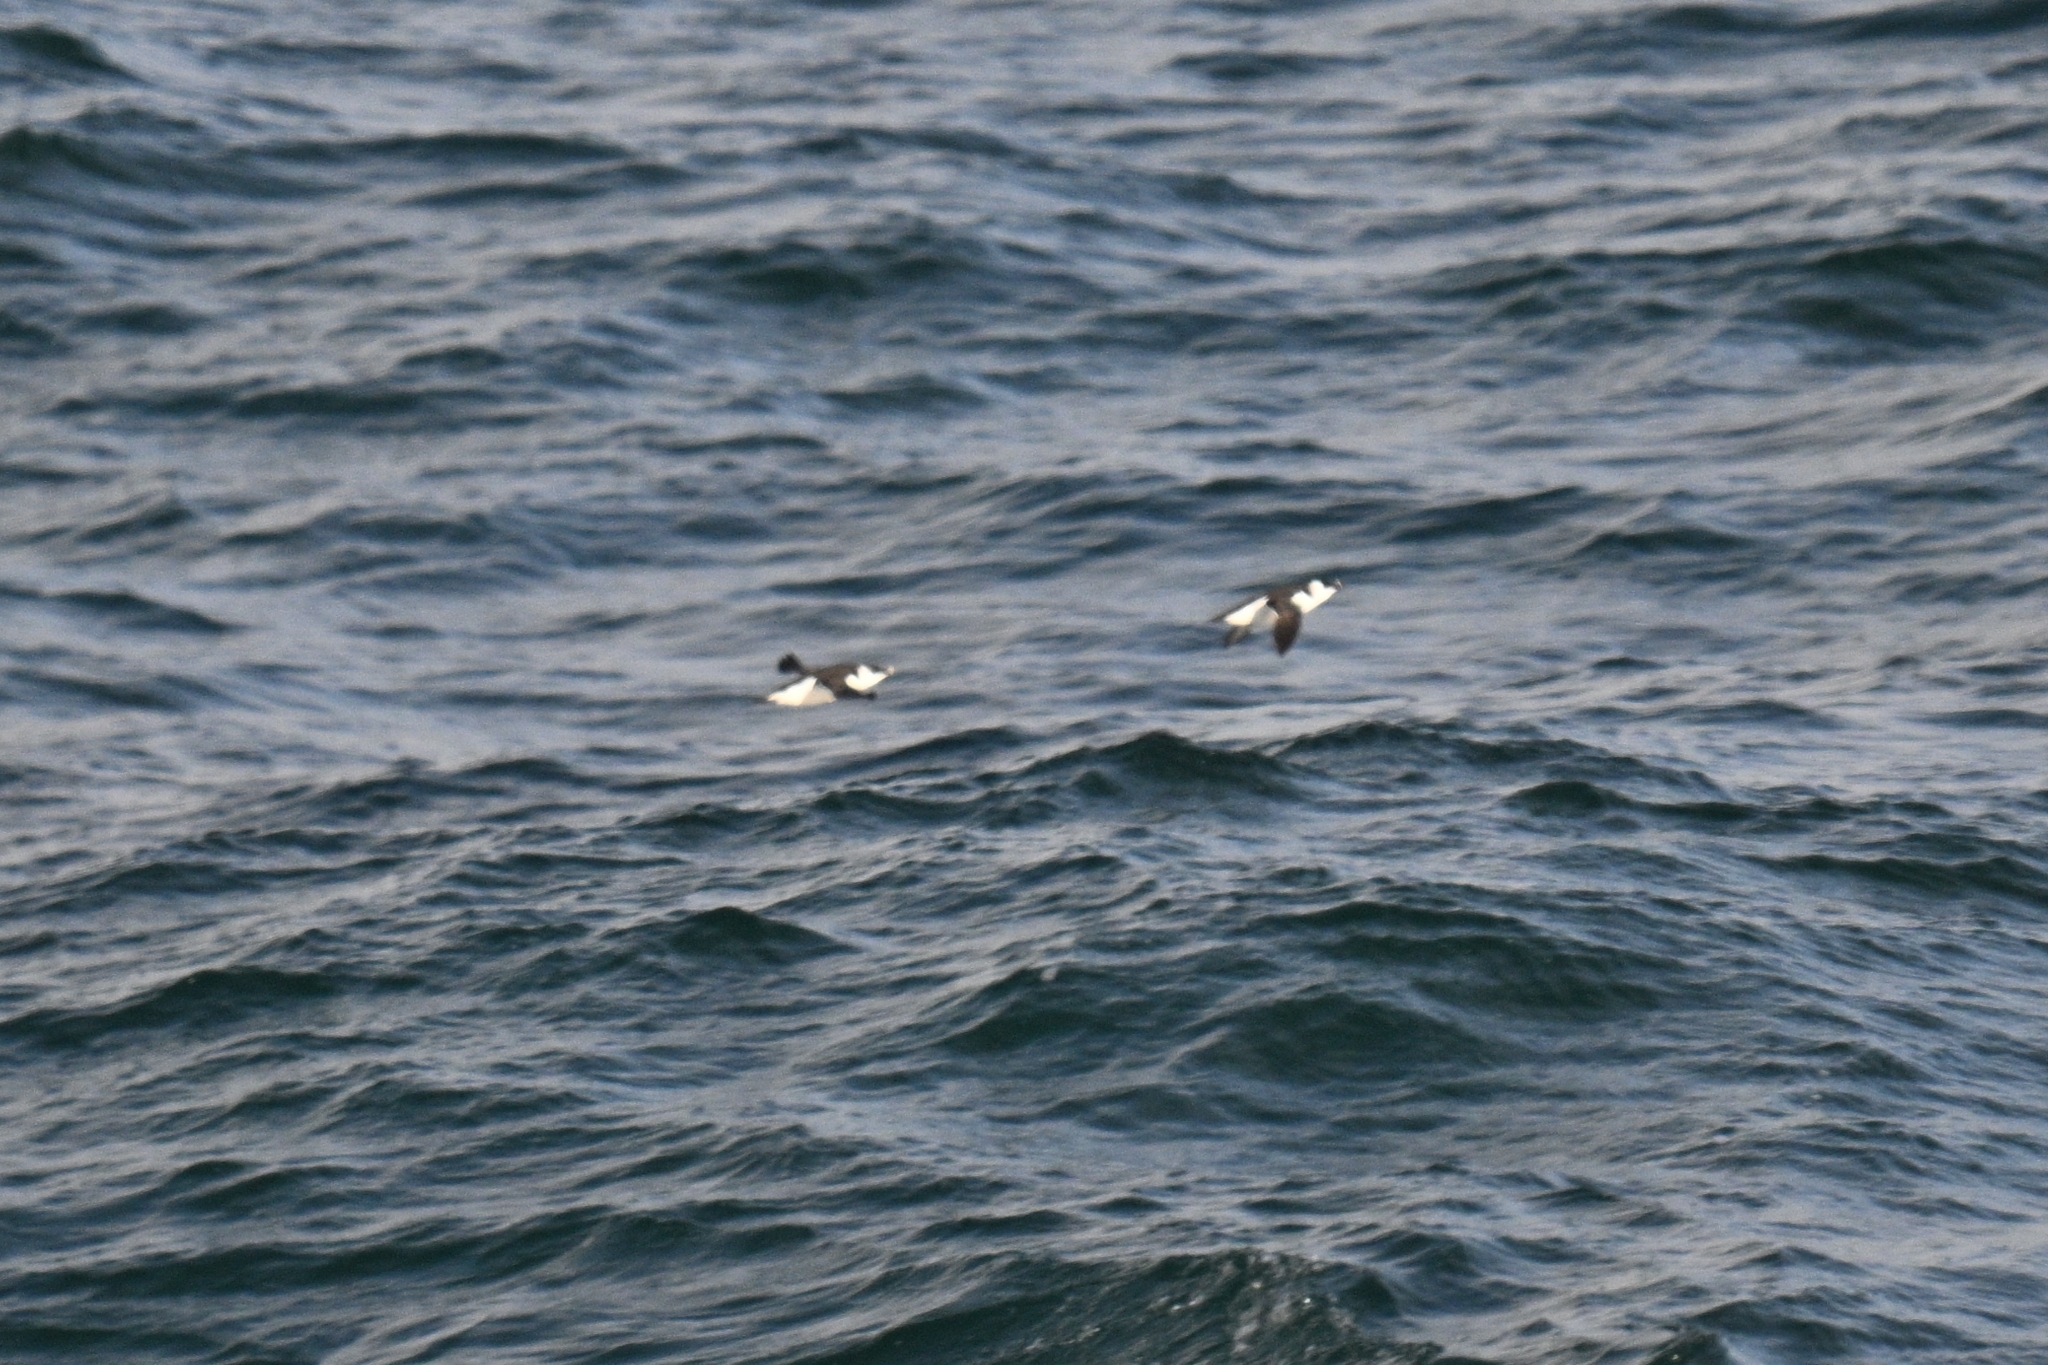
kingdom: Animalia
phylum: Chordata
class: Aves
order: Charadriiformes
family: Alcidae
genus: Alca
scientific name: Alca torda
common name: Razorbill
